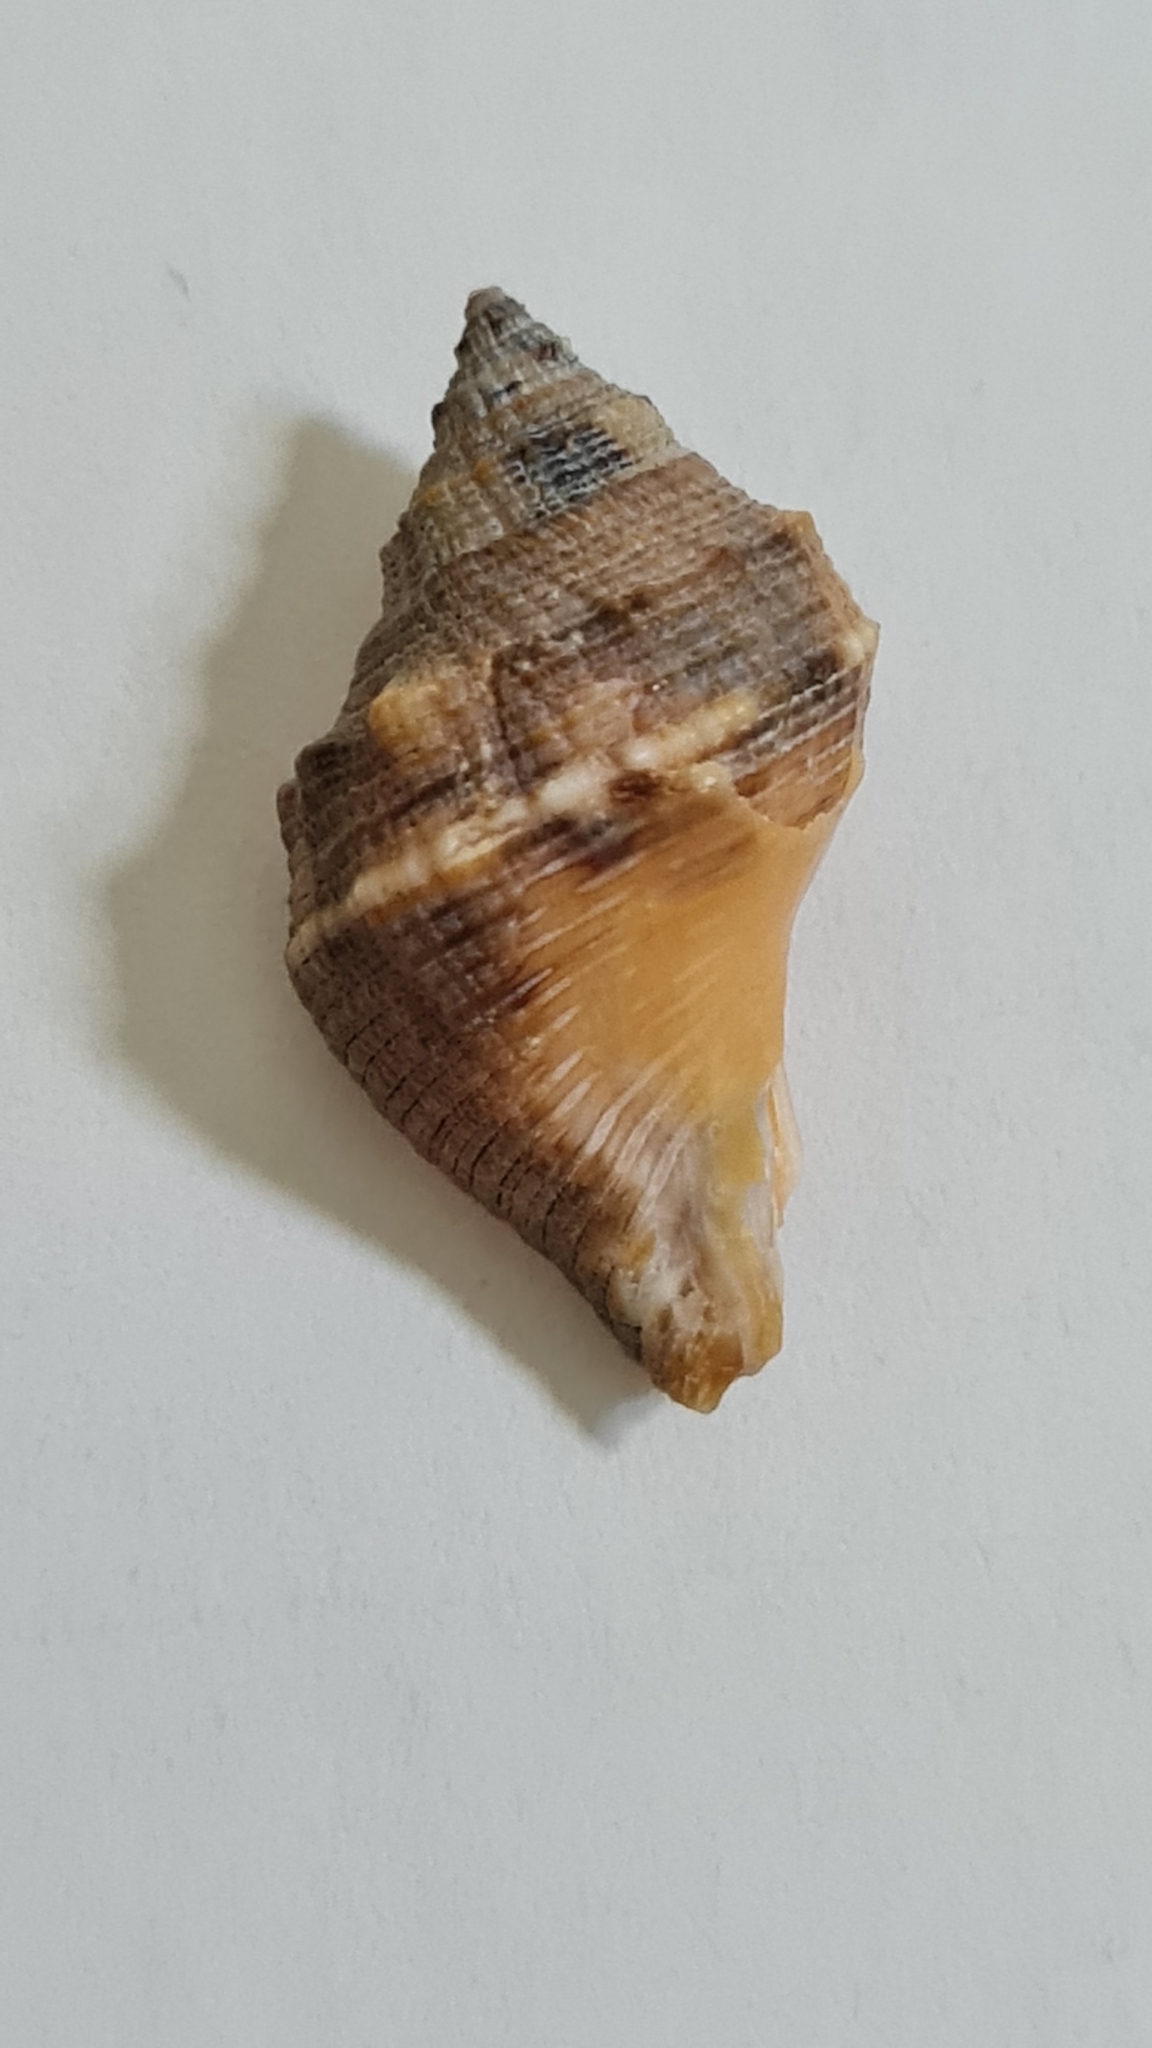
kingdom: Animalia
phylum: Mollusca
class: Gastropoda
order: Neogastropoda
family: Muricidae
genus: Stramonita
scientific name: Stramonita brasiliensis
